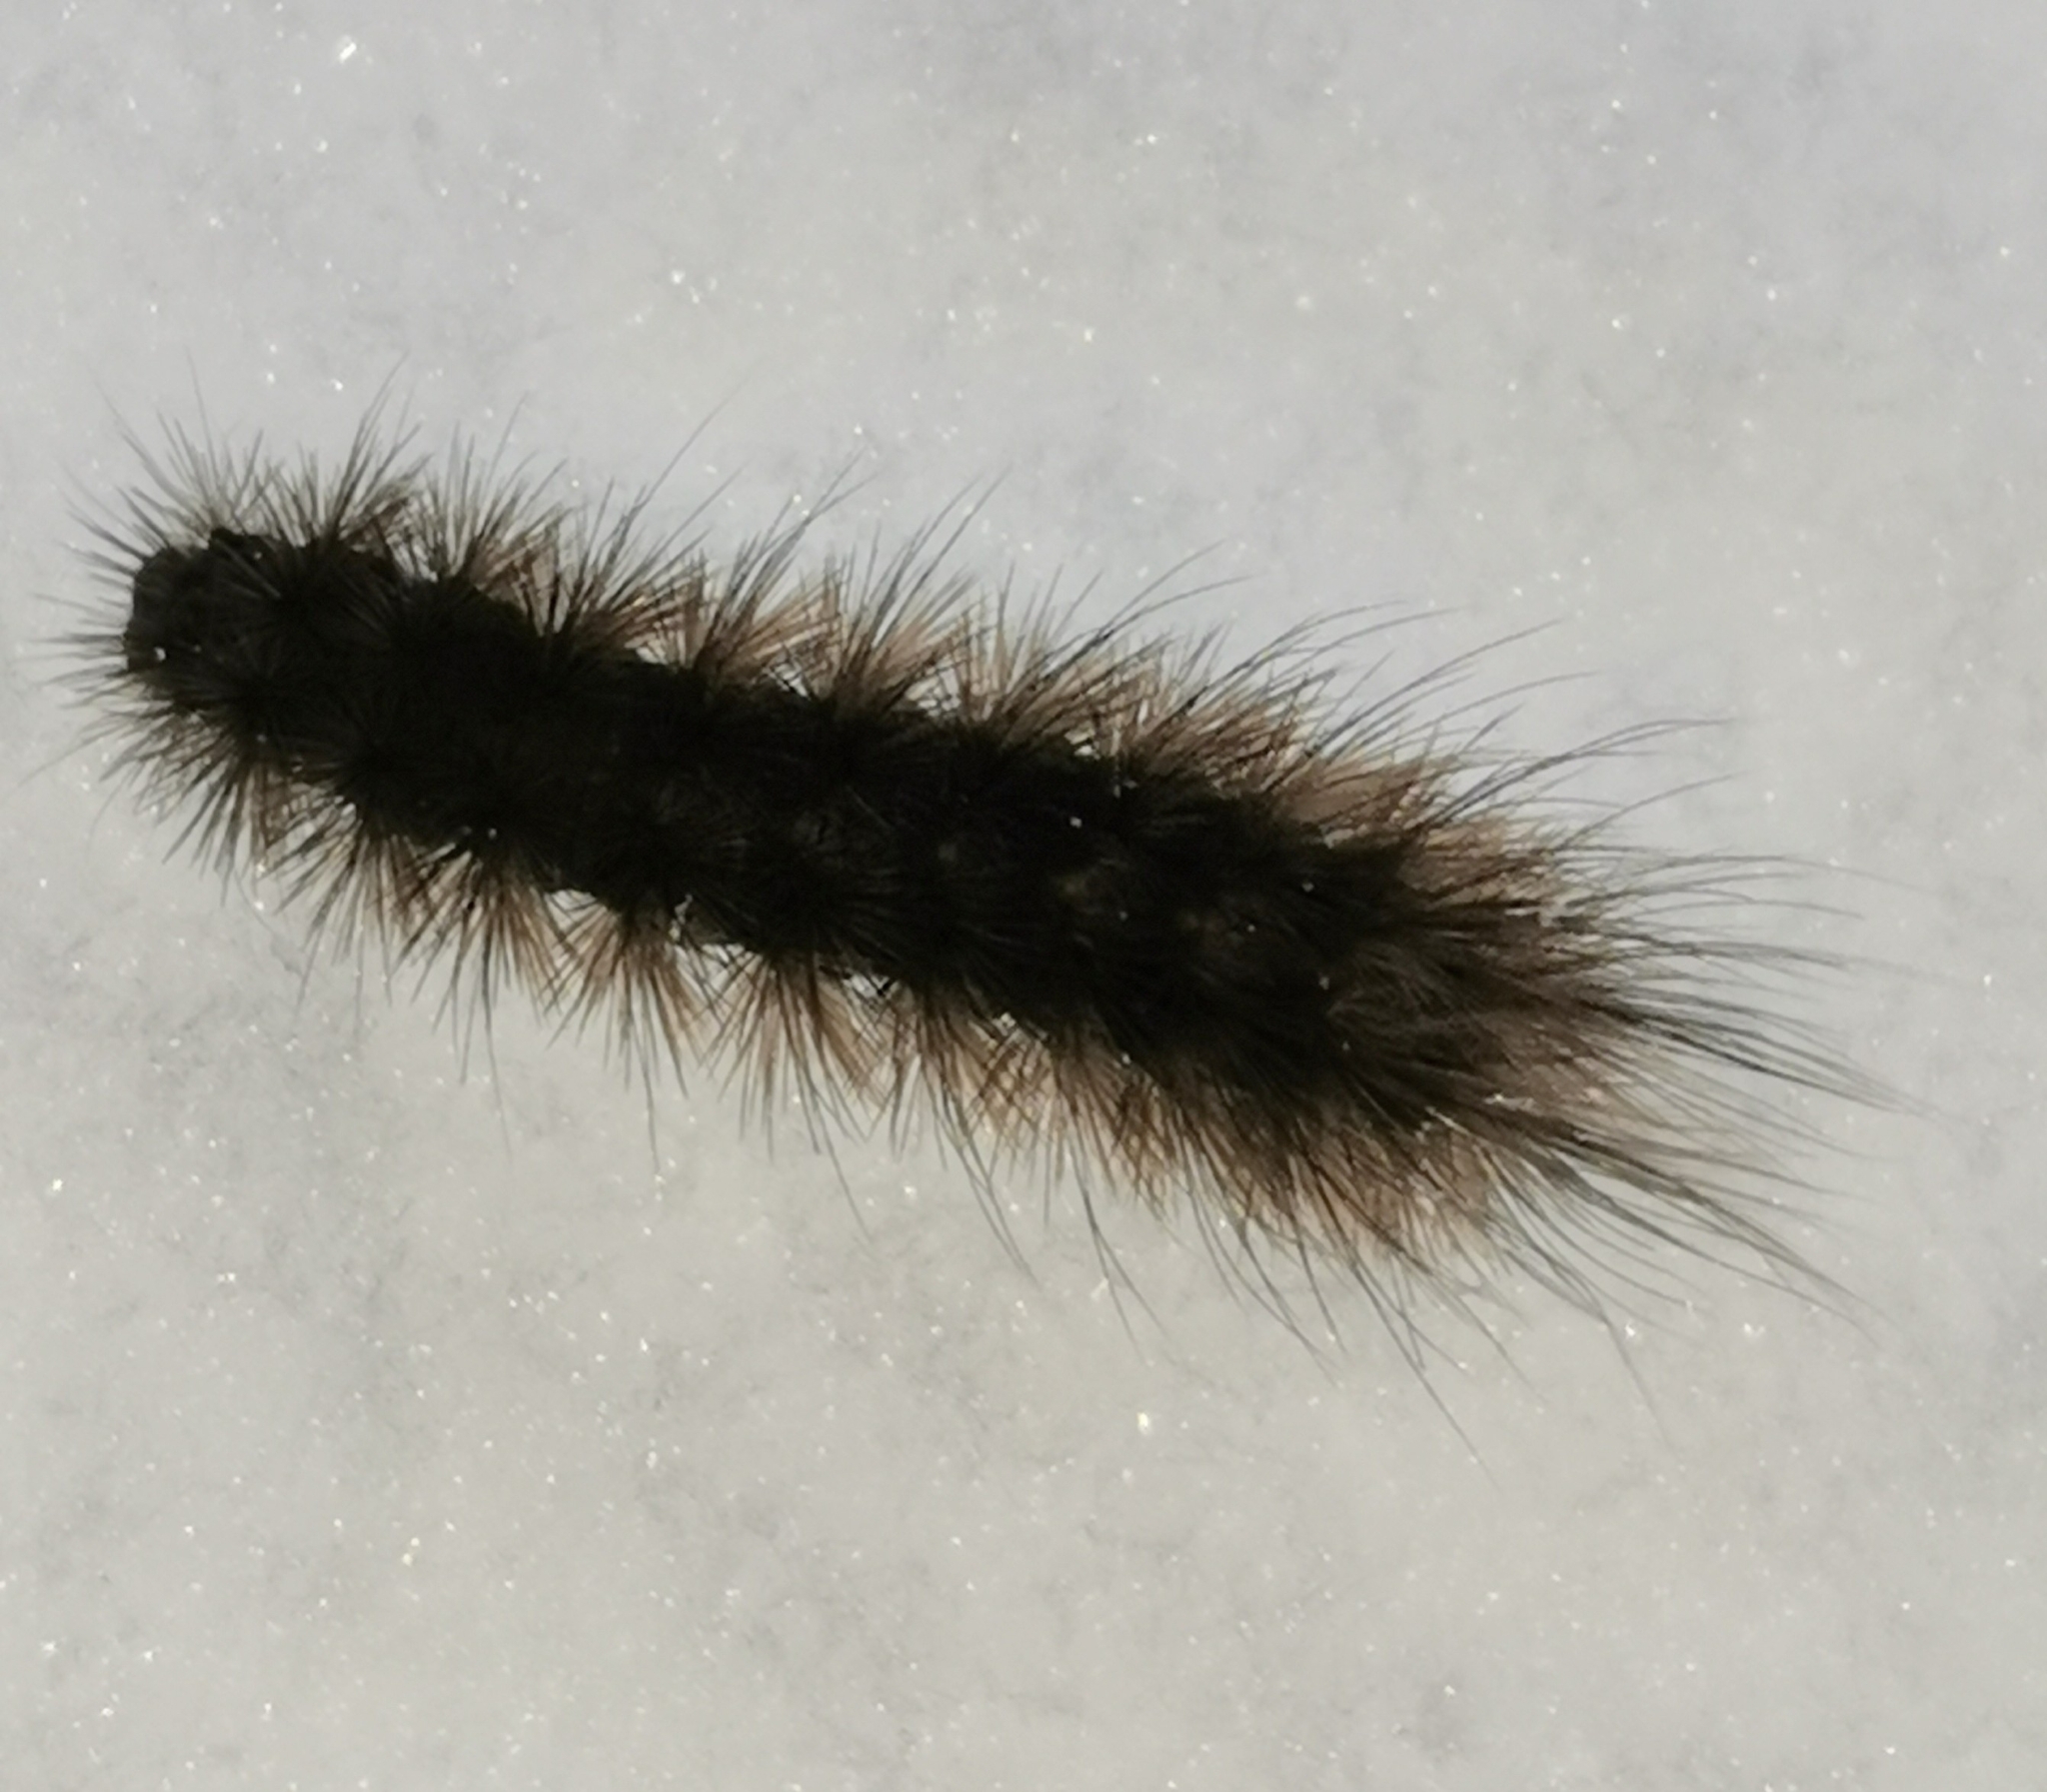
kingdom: Animalia
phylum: Arthropoda
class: Insecta
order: Lepidoptera
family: Erebidae
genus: Phragmatobia
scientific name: Phragmatobia fuliginosa
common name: Ruby tiger
